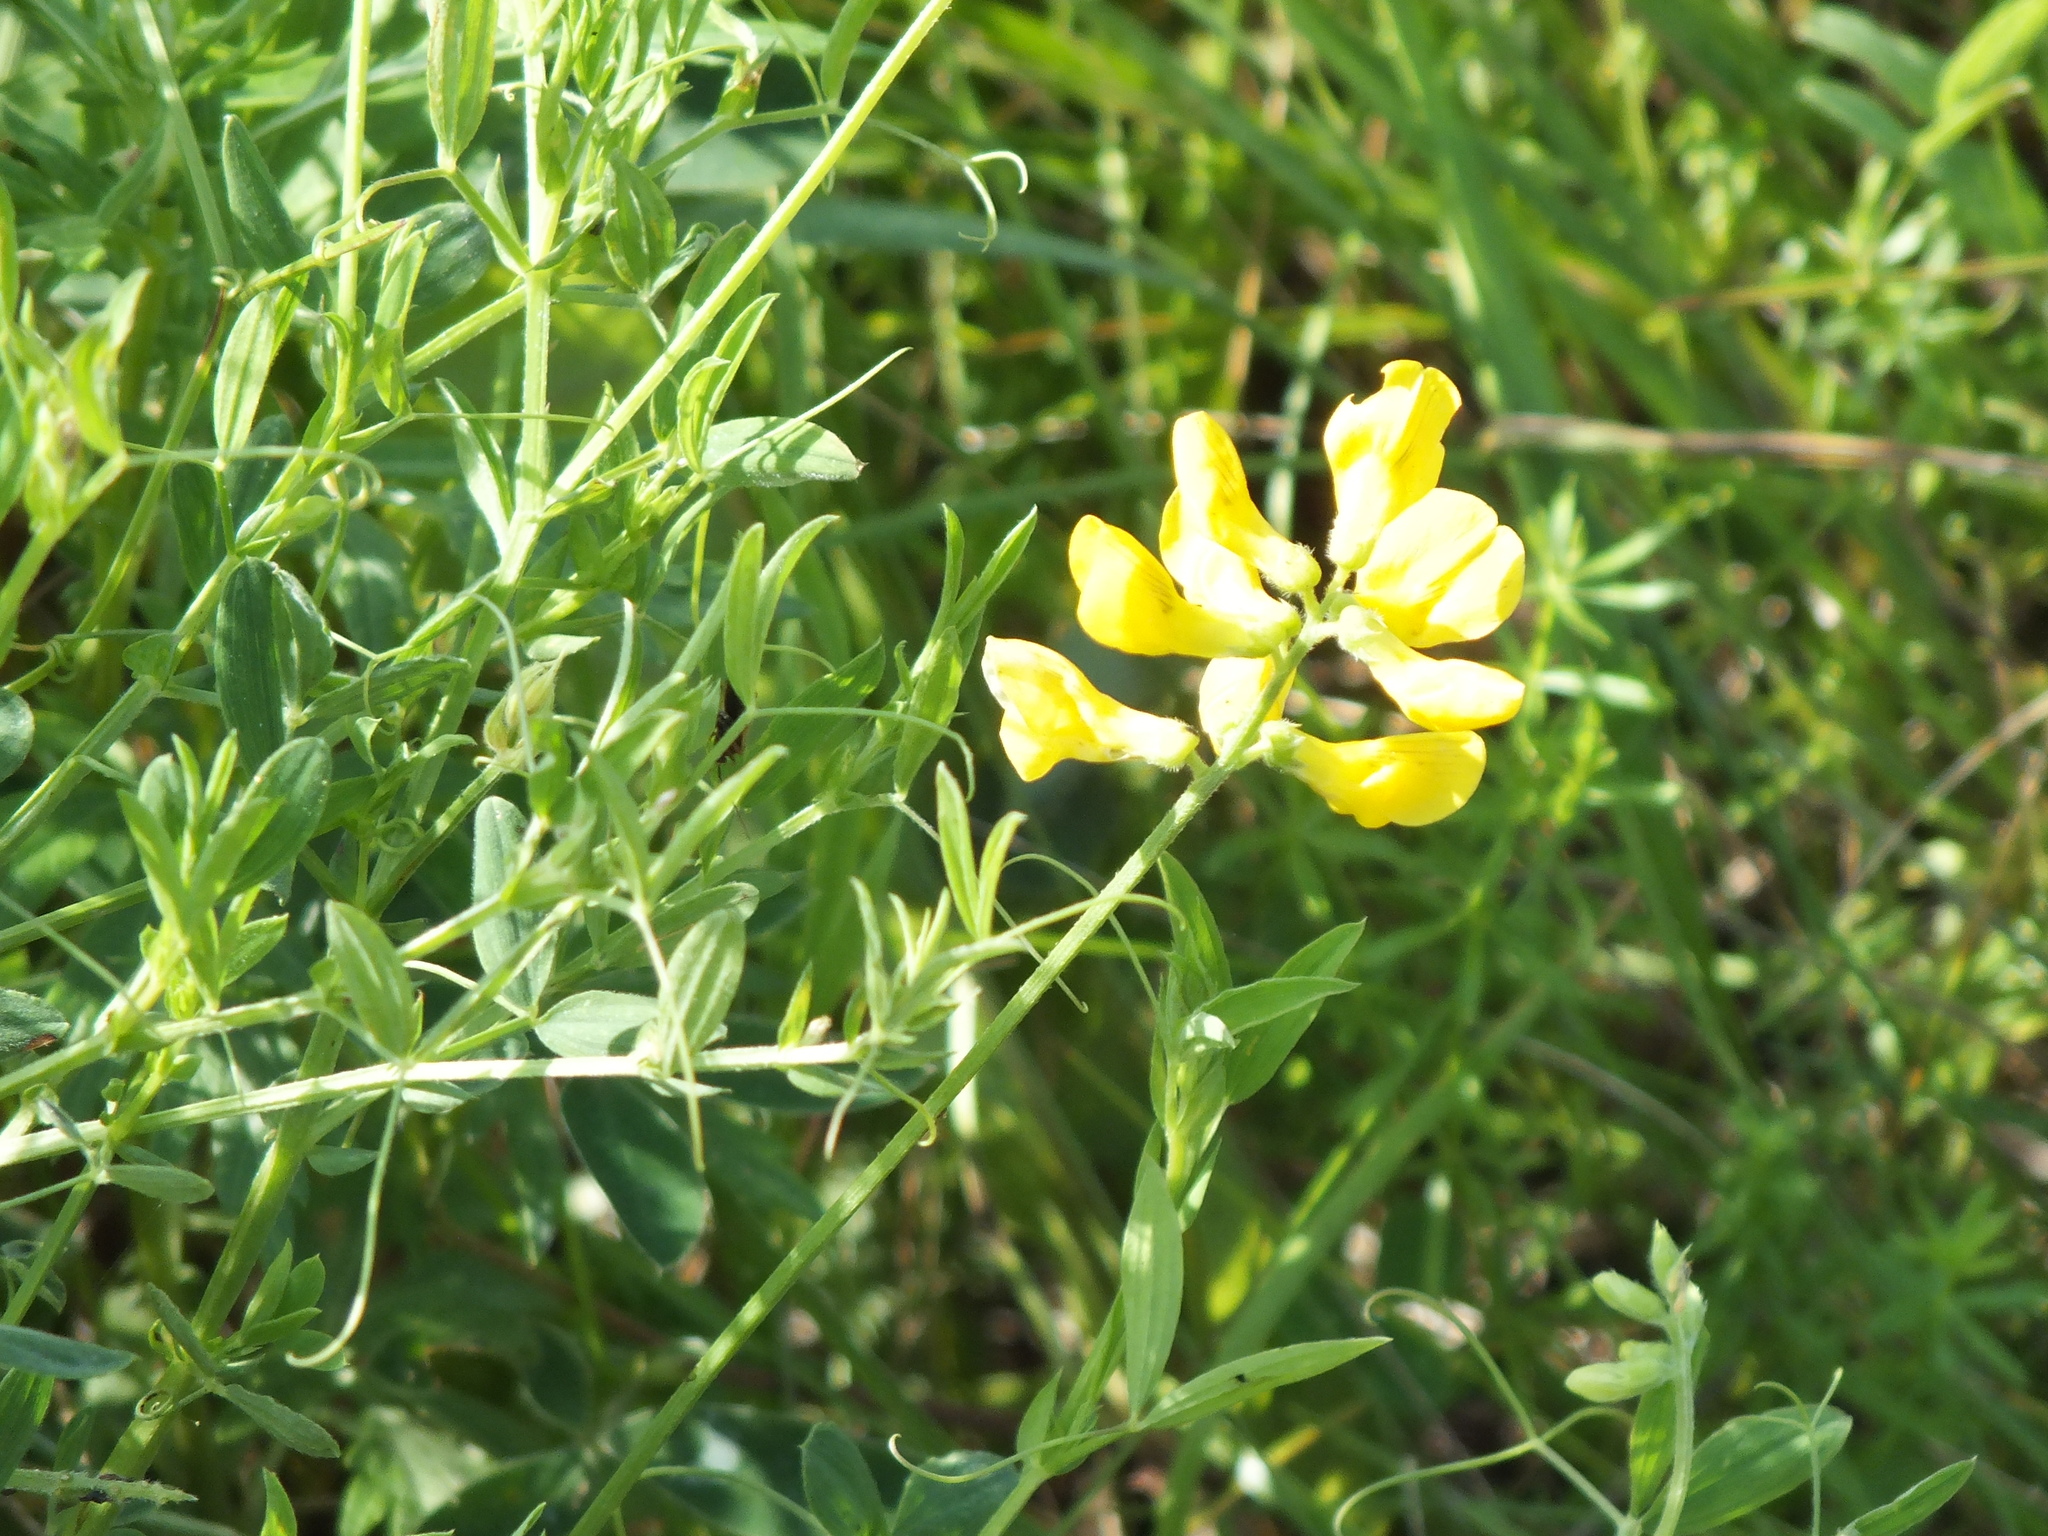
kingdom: Plantae
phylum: Tracheophyta
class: Magnoliopsida
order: Fabales
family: Fabaceae
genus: Lathyrus
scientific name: Lathyrus pratensis
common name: Meadow vetchling
